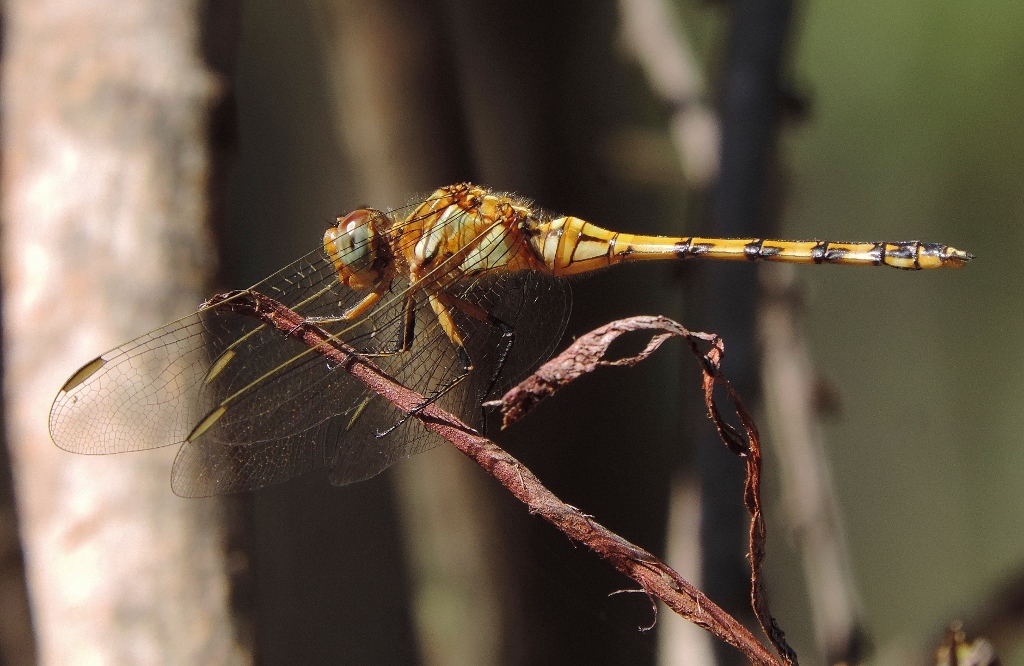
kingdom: Animalia
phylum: Arthropoda
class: Insecta
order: Odonata
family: Libellulidae
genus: Orthetrum
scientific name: Orthetrum brachiale
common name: Banded skimmer
